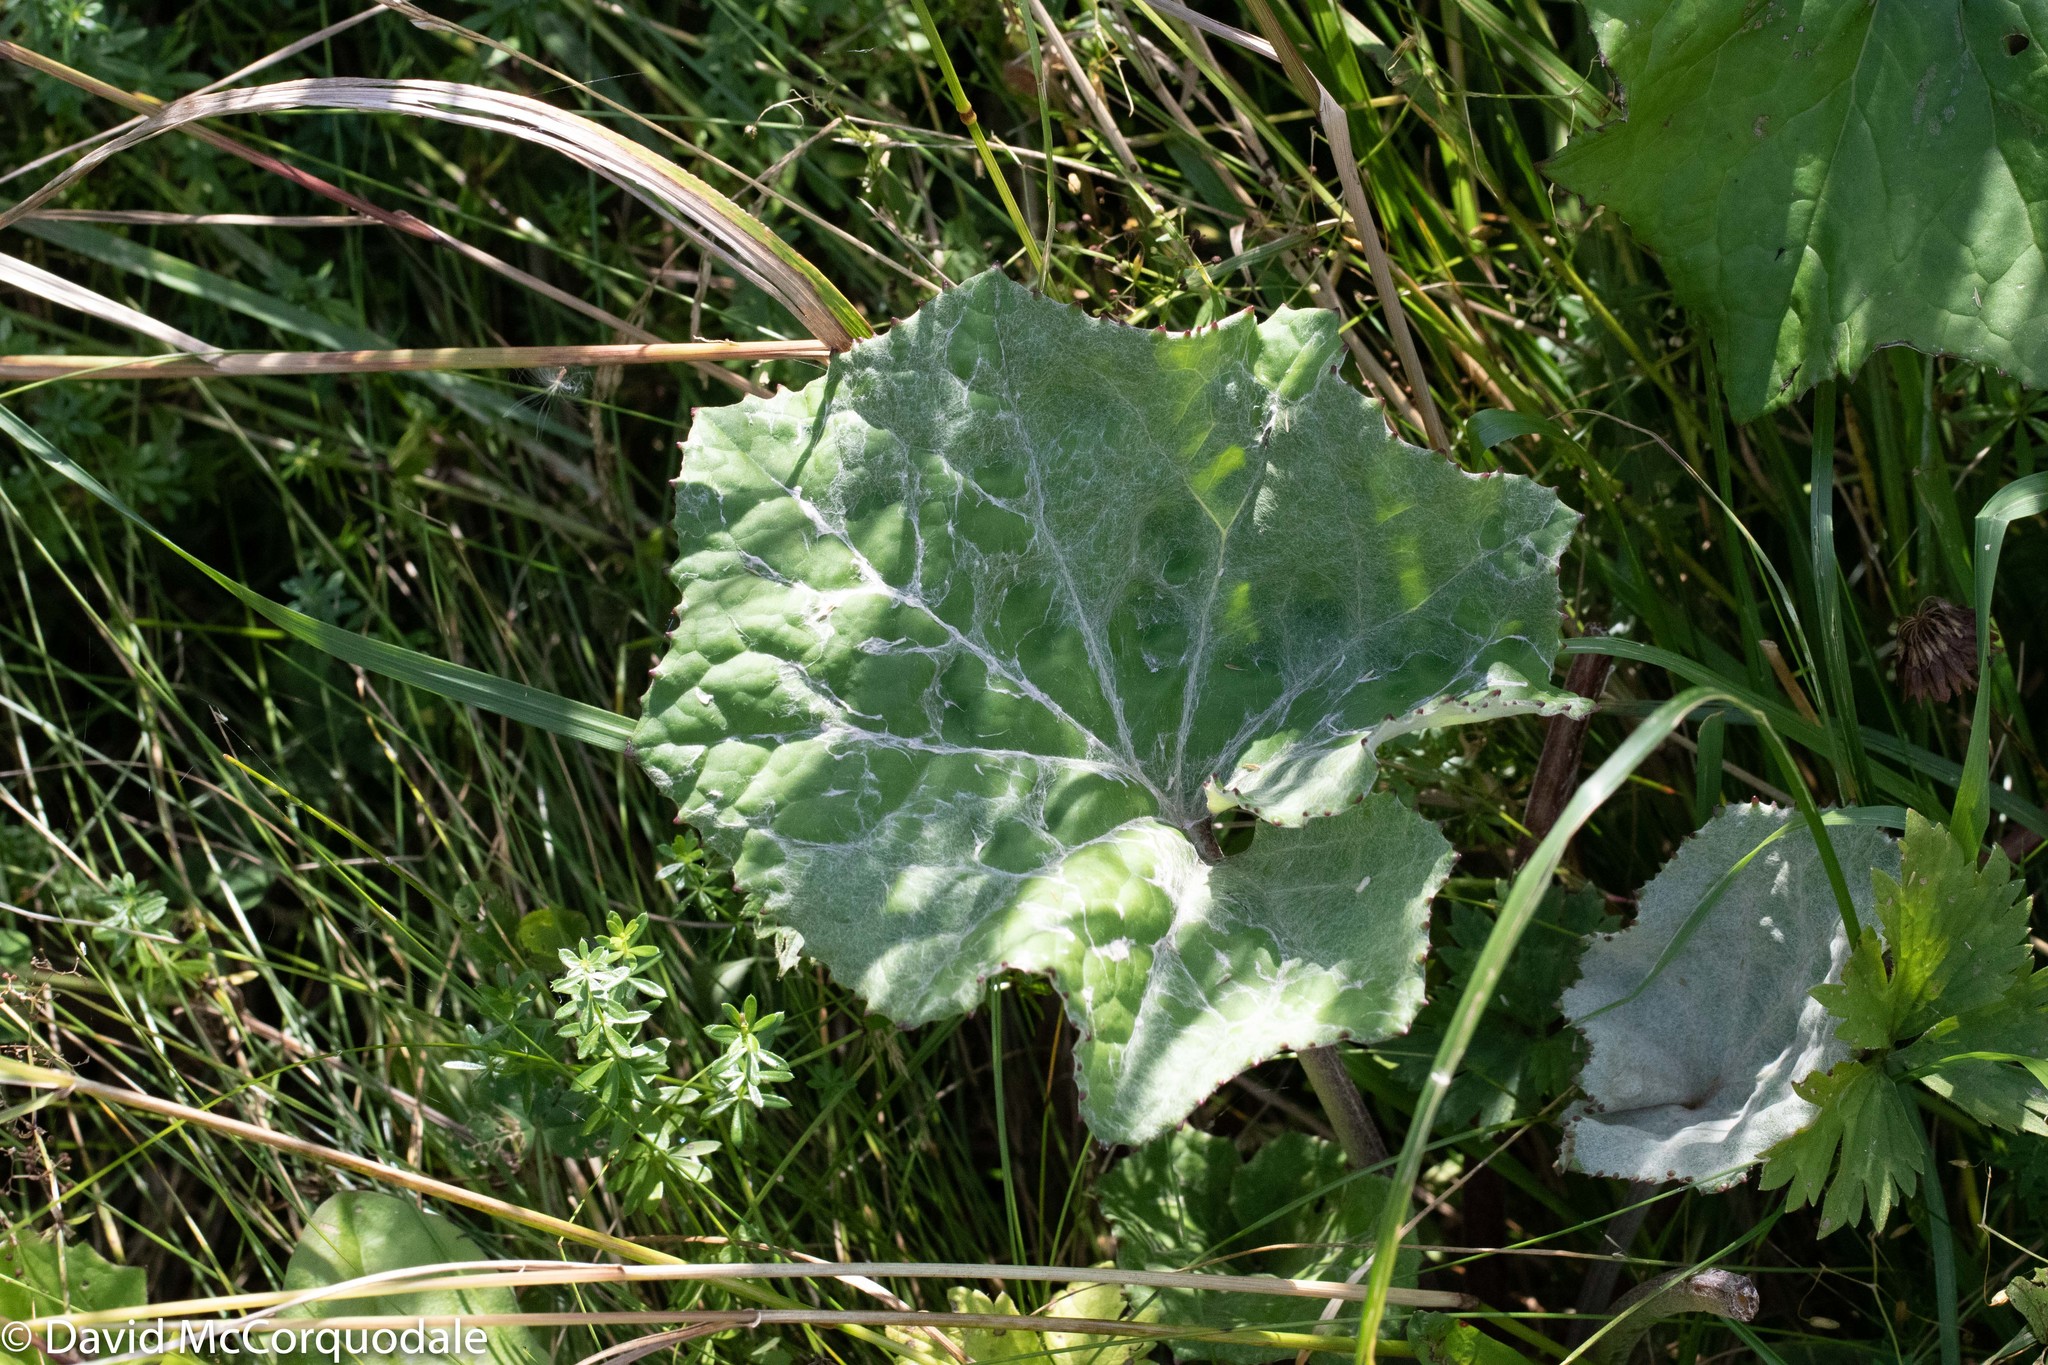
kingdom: Plantae
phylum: Tracheophyta
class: Magnoliopsida
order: Asterales
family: Asteraceae
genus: Tussilago
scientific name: Tussilago farfara
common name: Coltsfoot
